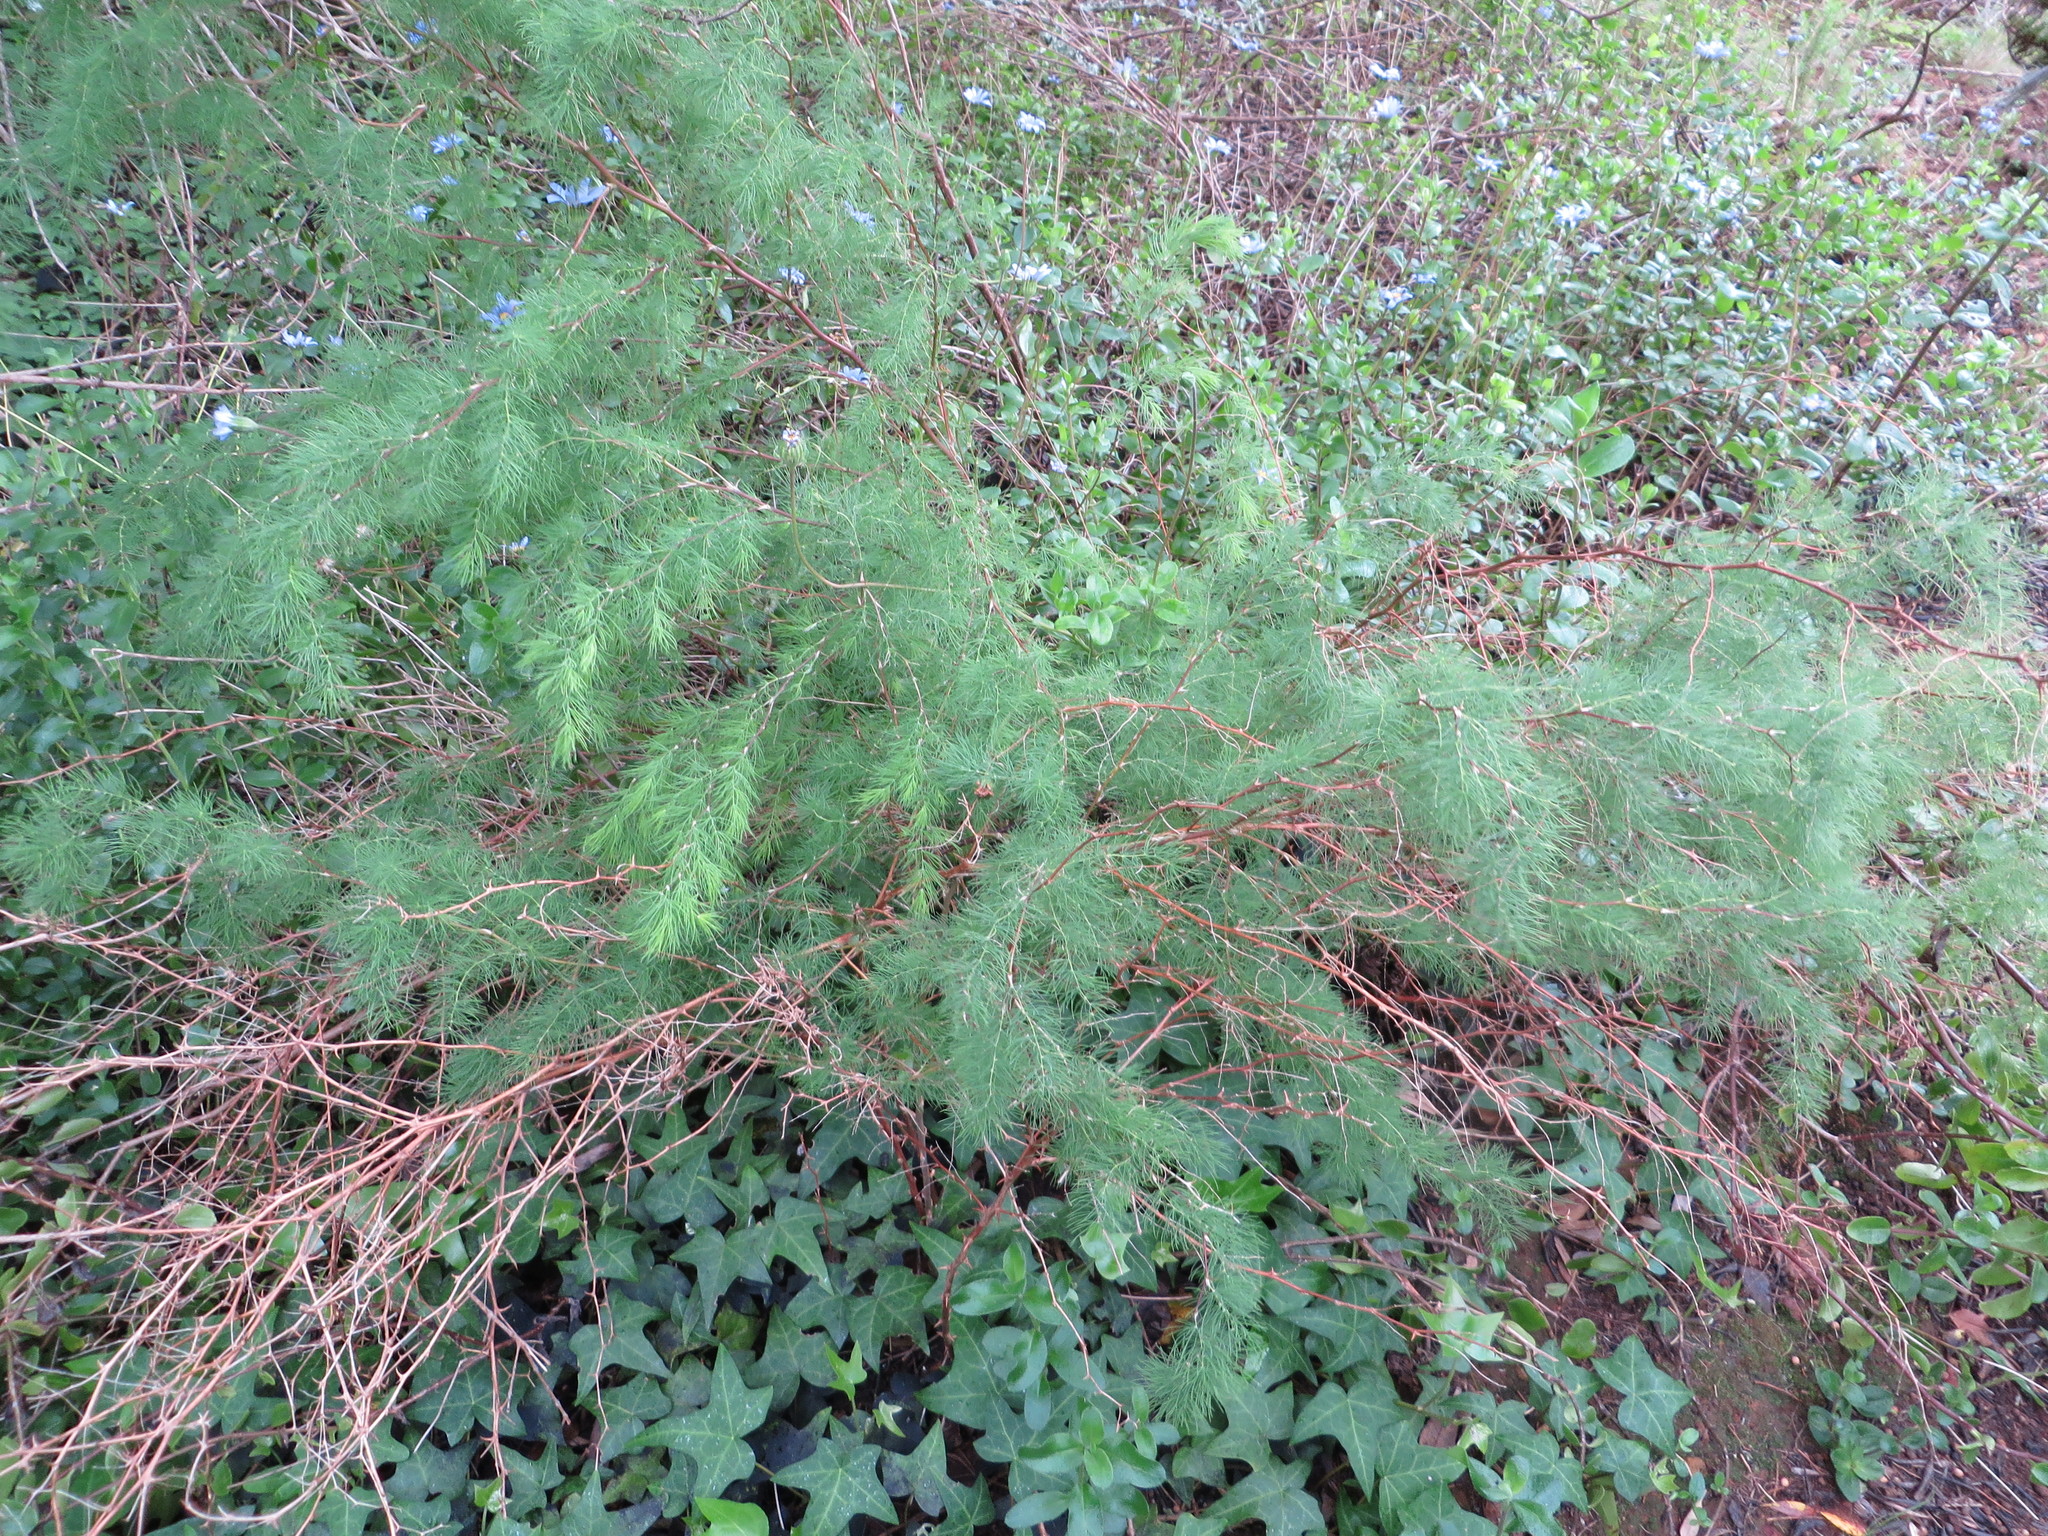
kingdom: Plantae
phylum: Tracheophyta
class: Liliopsida
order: Asparagales
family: Asparagaceae
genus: Asparagus
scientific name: Asparagus rubicundus
